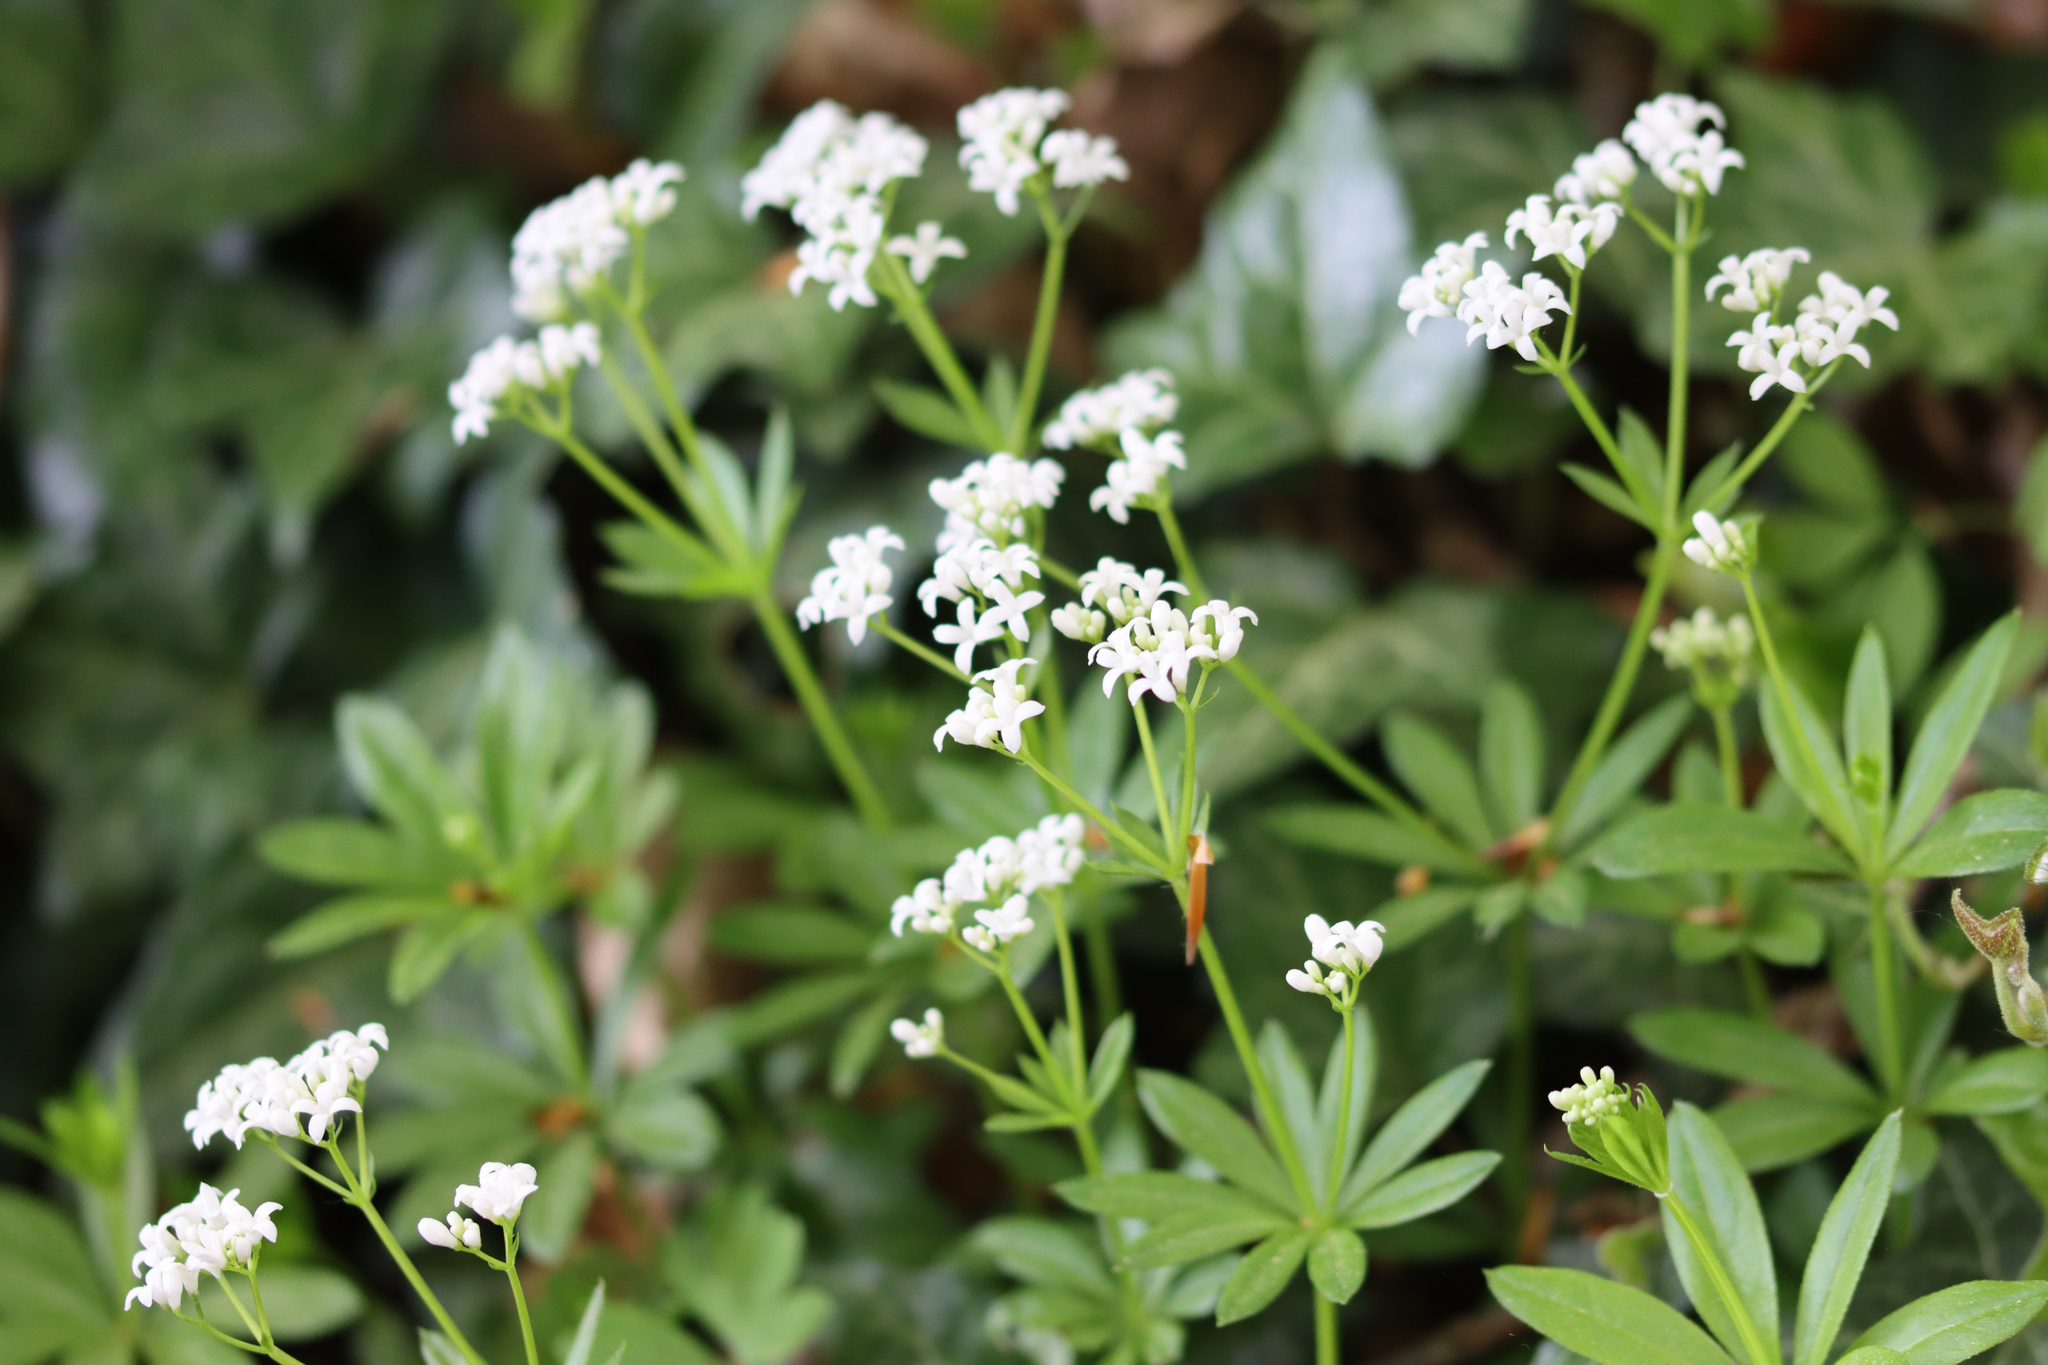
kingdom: Plantae
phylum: Tracheophyta
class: Magnoliopsida
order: Gentianales
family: Rubiaceae
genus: Galium
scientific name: Galium odoratum
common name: Sweet woodruff
